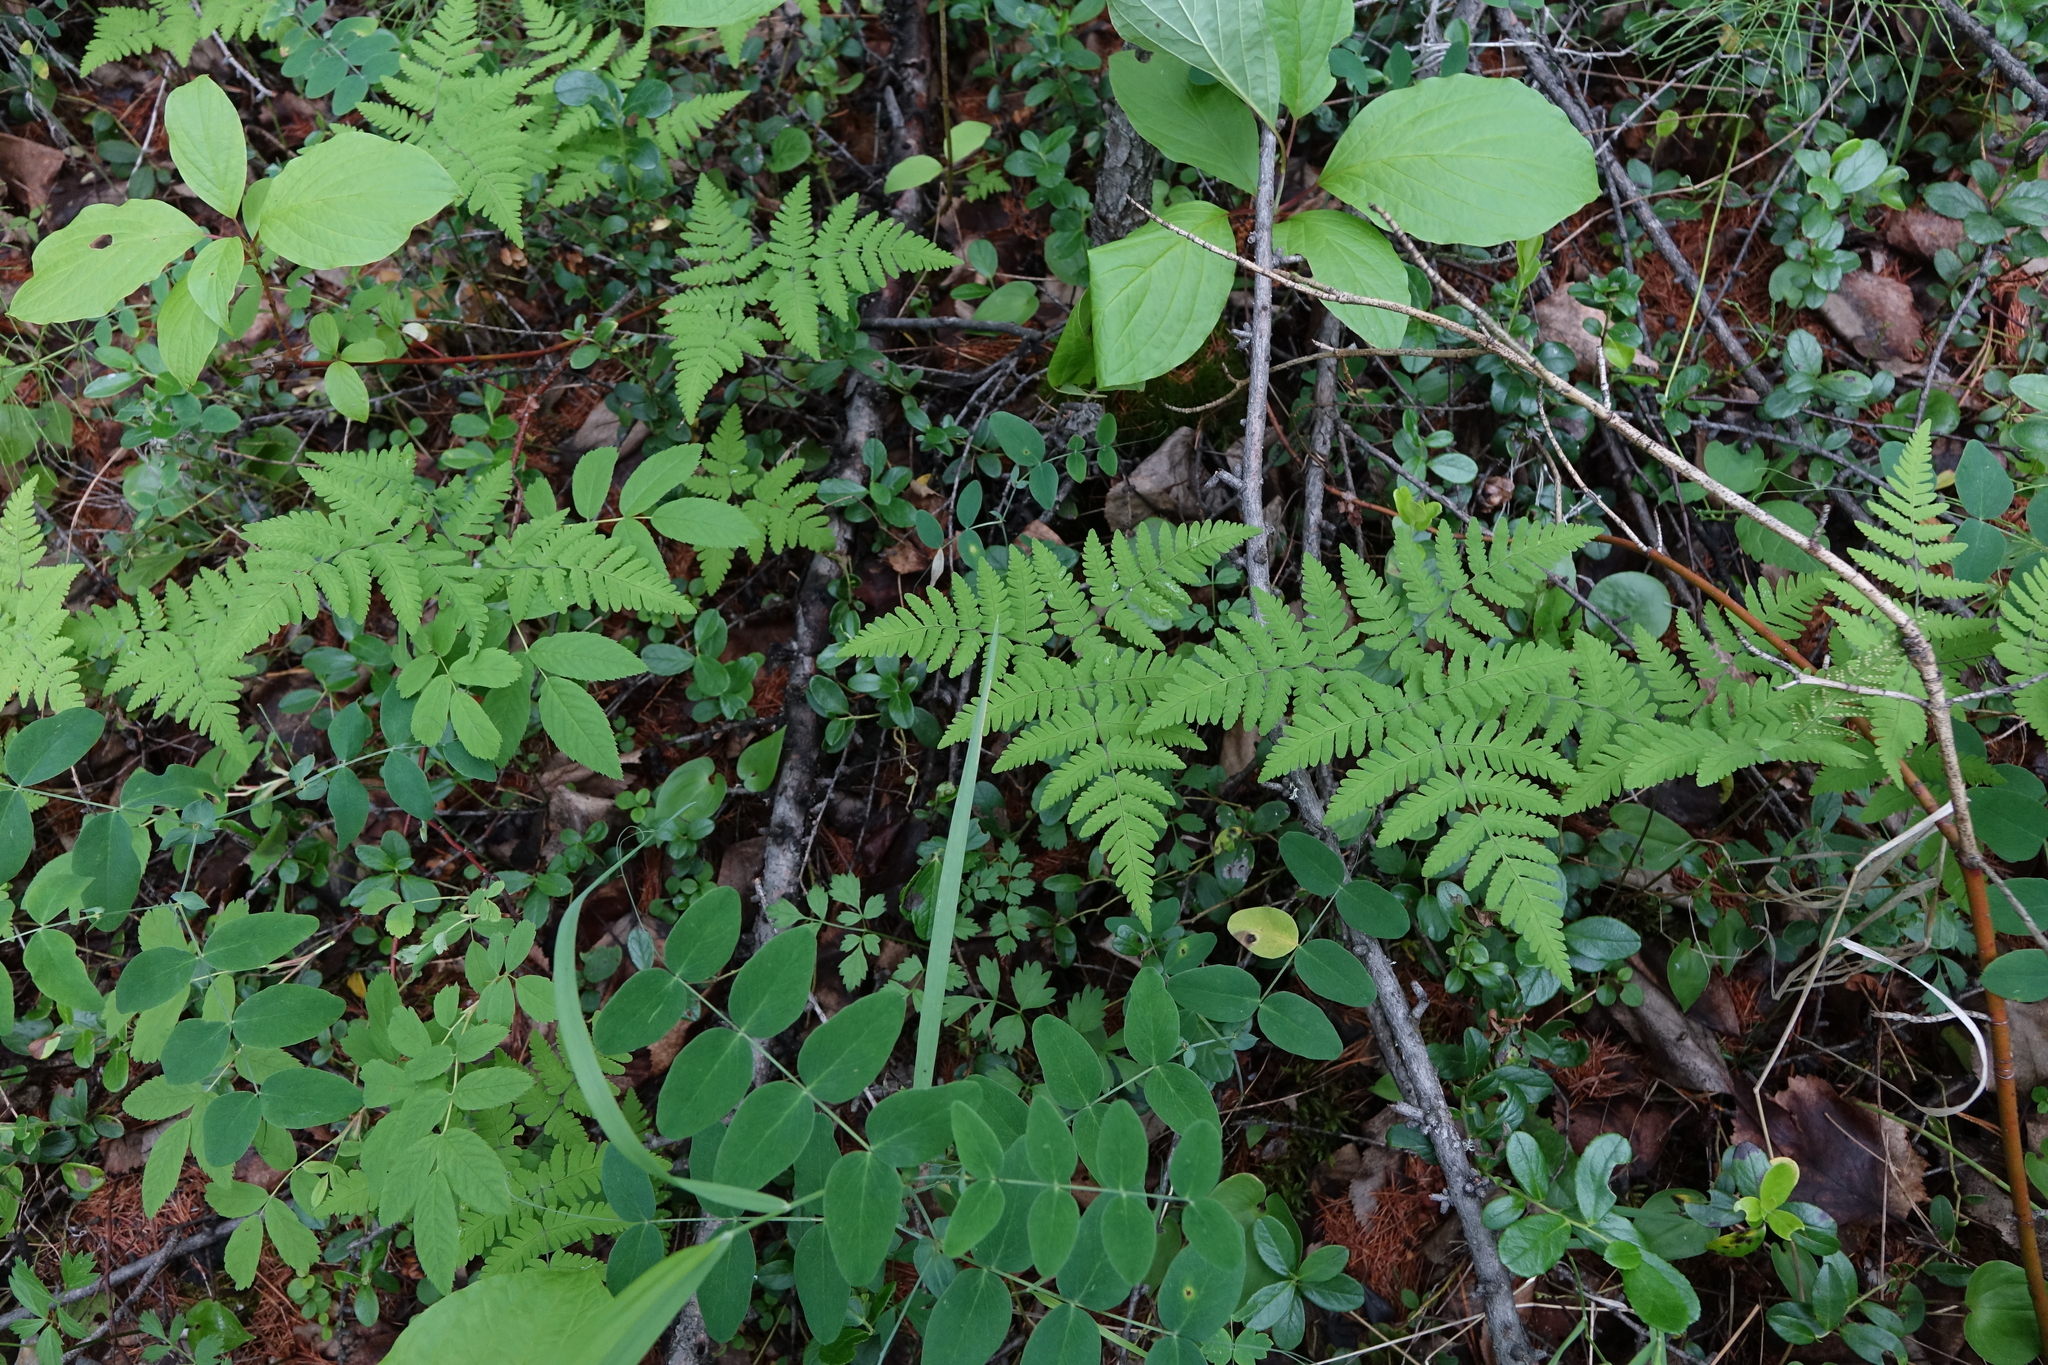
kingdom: Plantae
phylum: Tracheophyta
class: Polypodiopsida
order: Polypodiales
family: Cystopteridaceae
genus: Gymnocarpium
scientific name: Gymnocarpium continentale
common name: Asian oak fern
